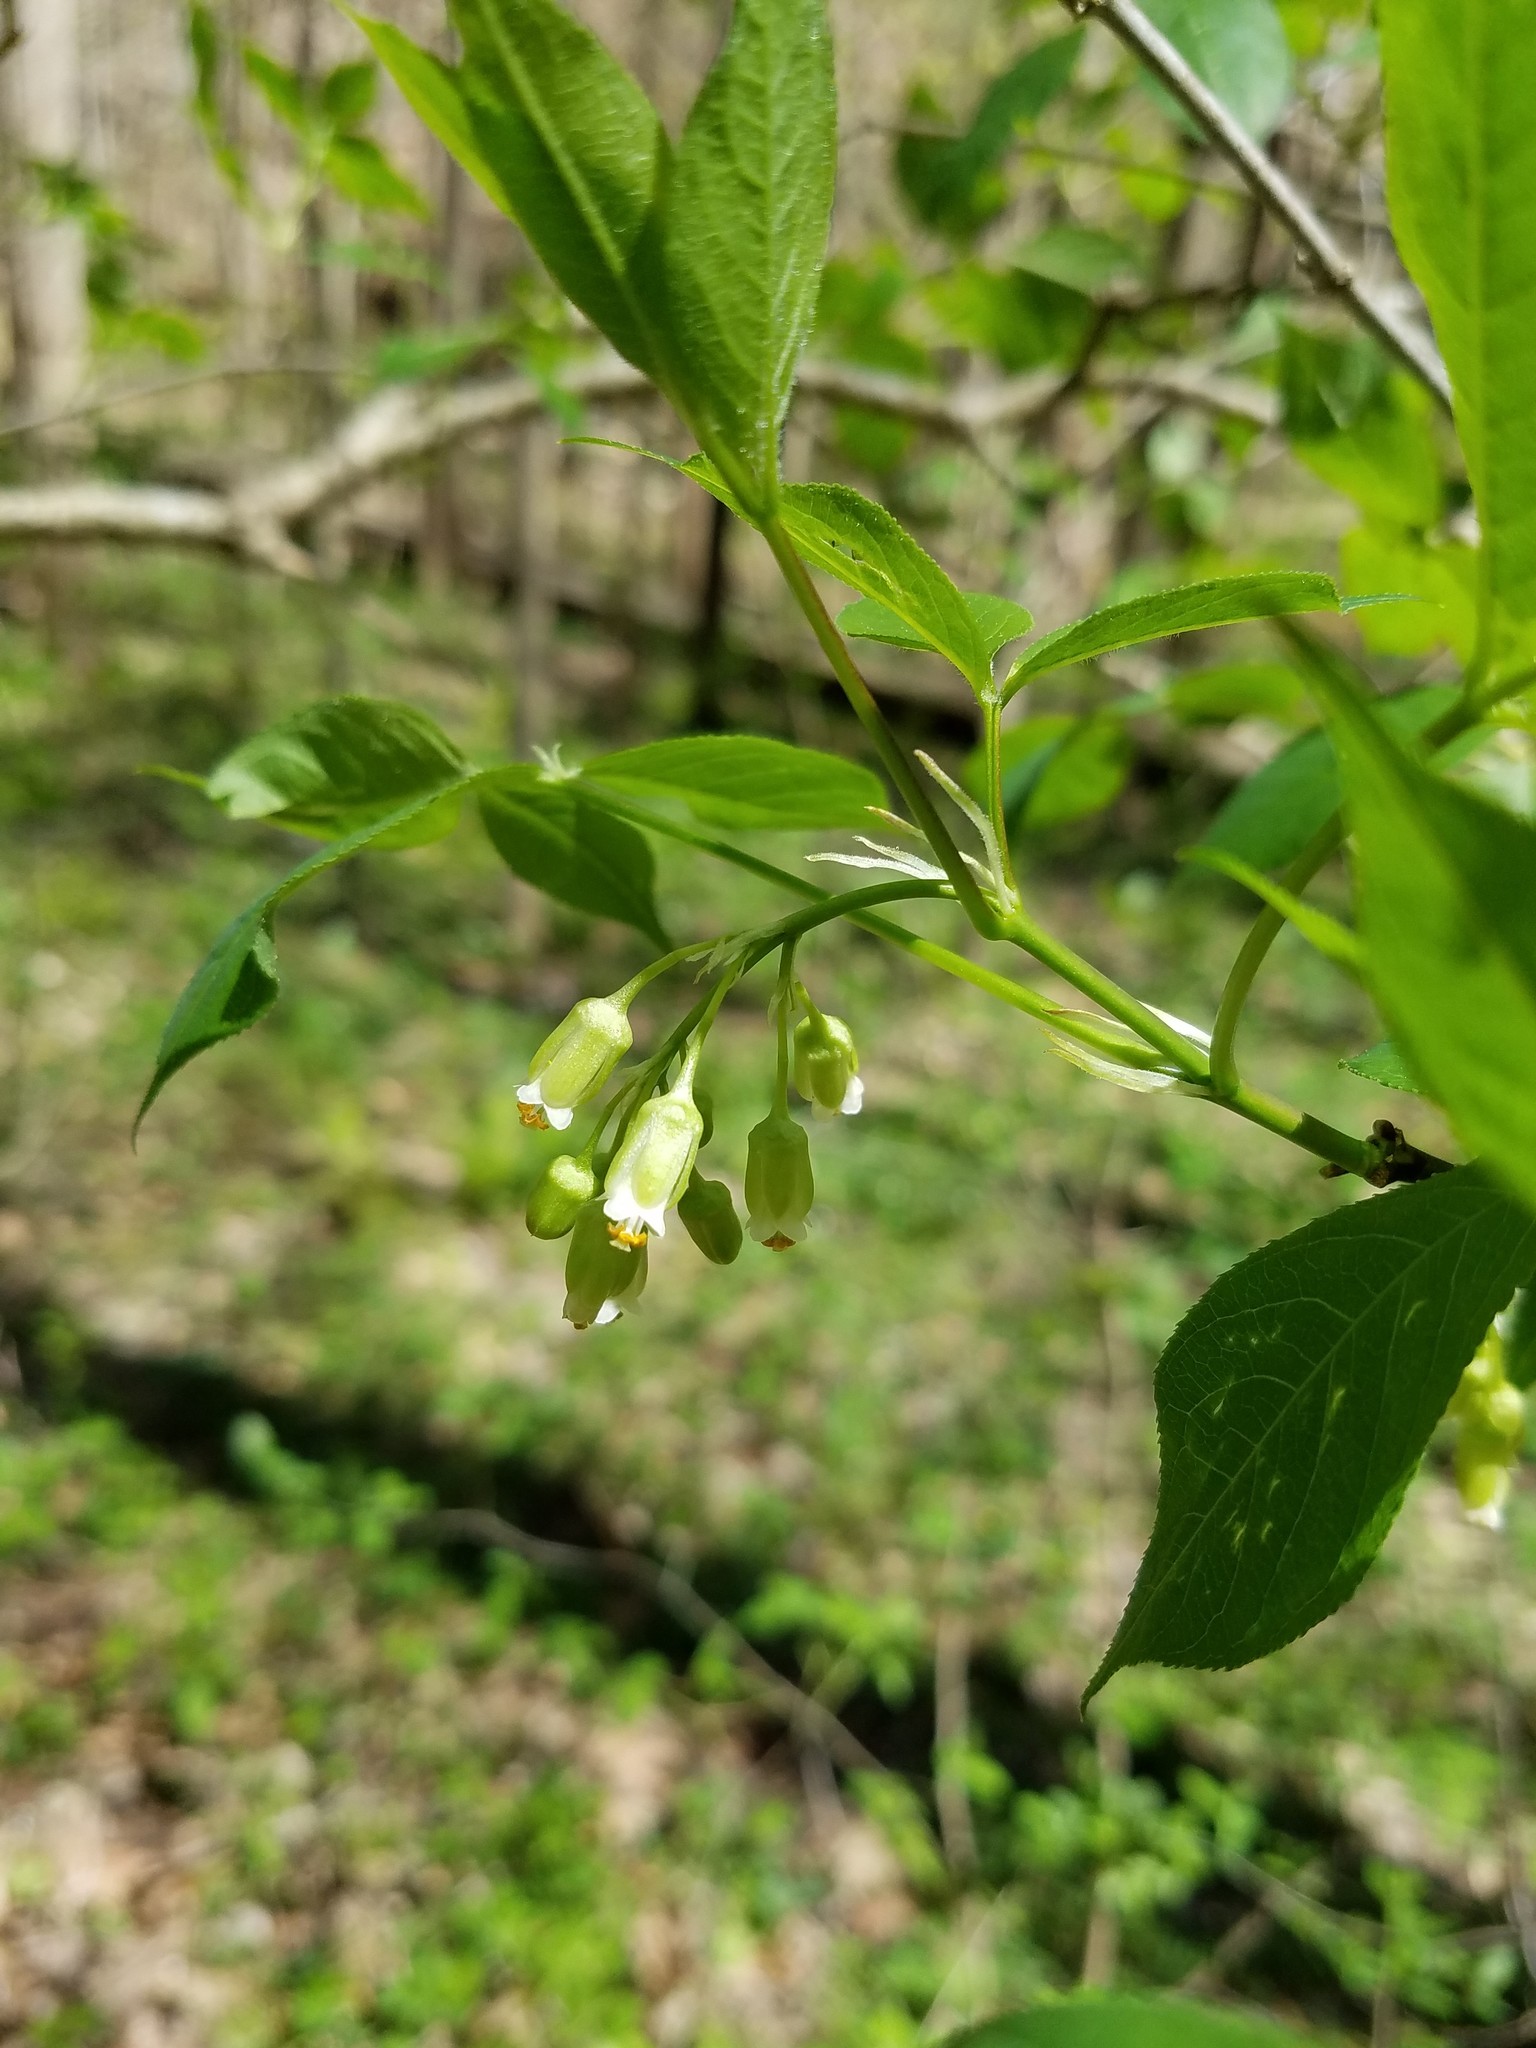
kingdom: Plantae
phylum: Tracheophyta
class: Magnoliopsida
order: Crossosomatales
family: Staphyleaceae
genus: Staphylea
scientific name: Staphylea trifolia
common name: American bladdernut
